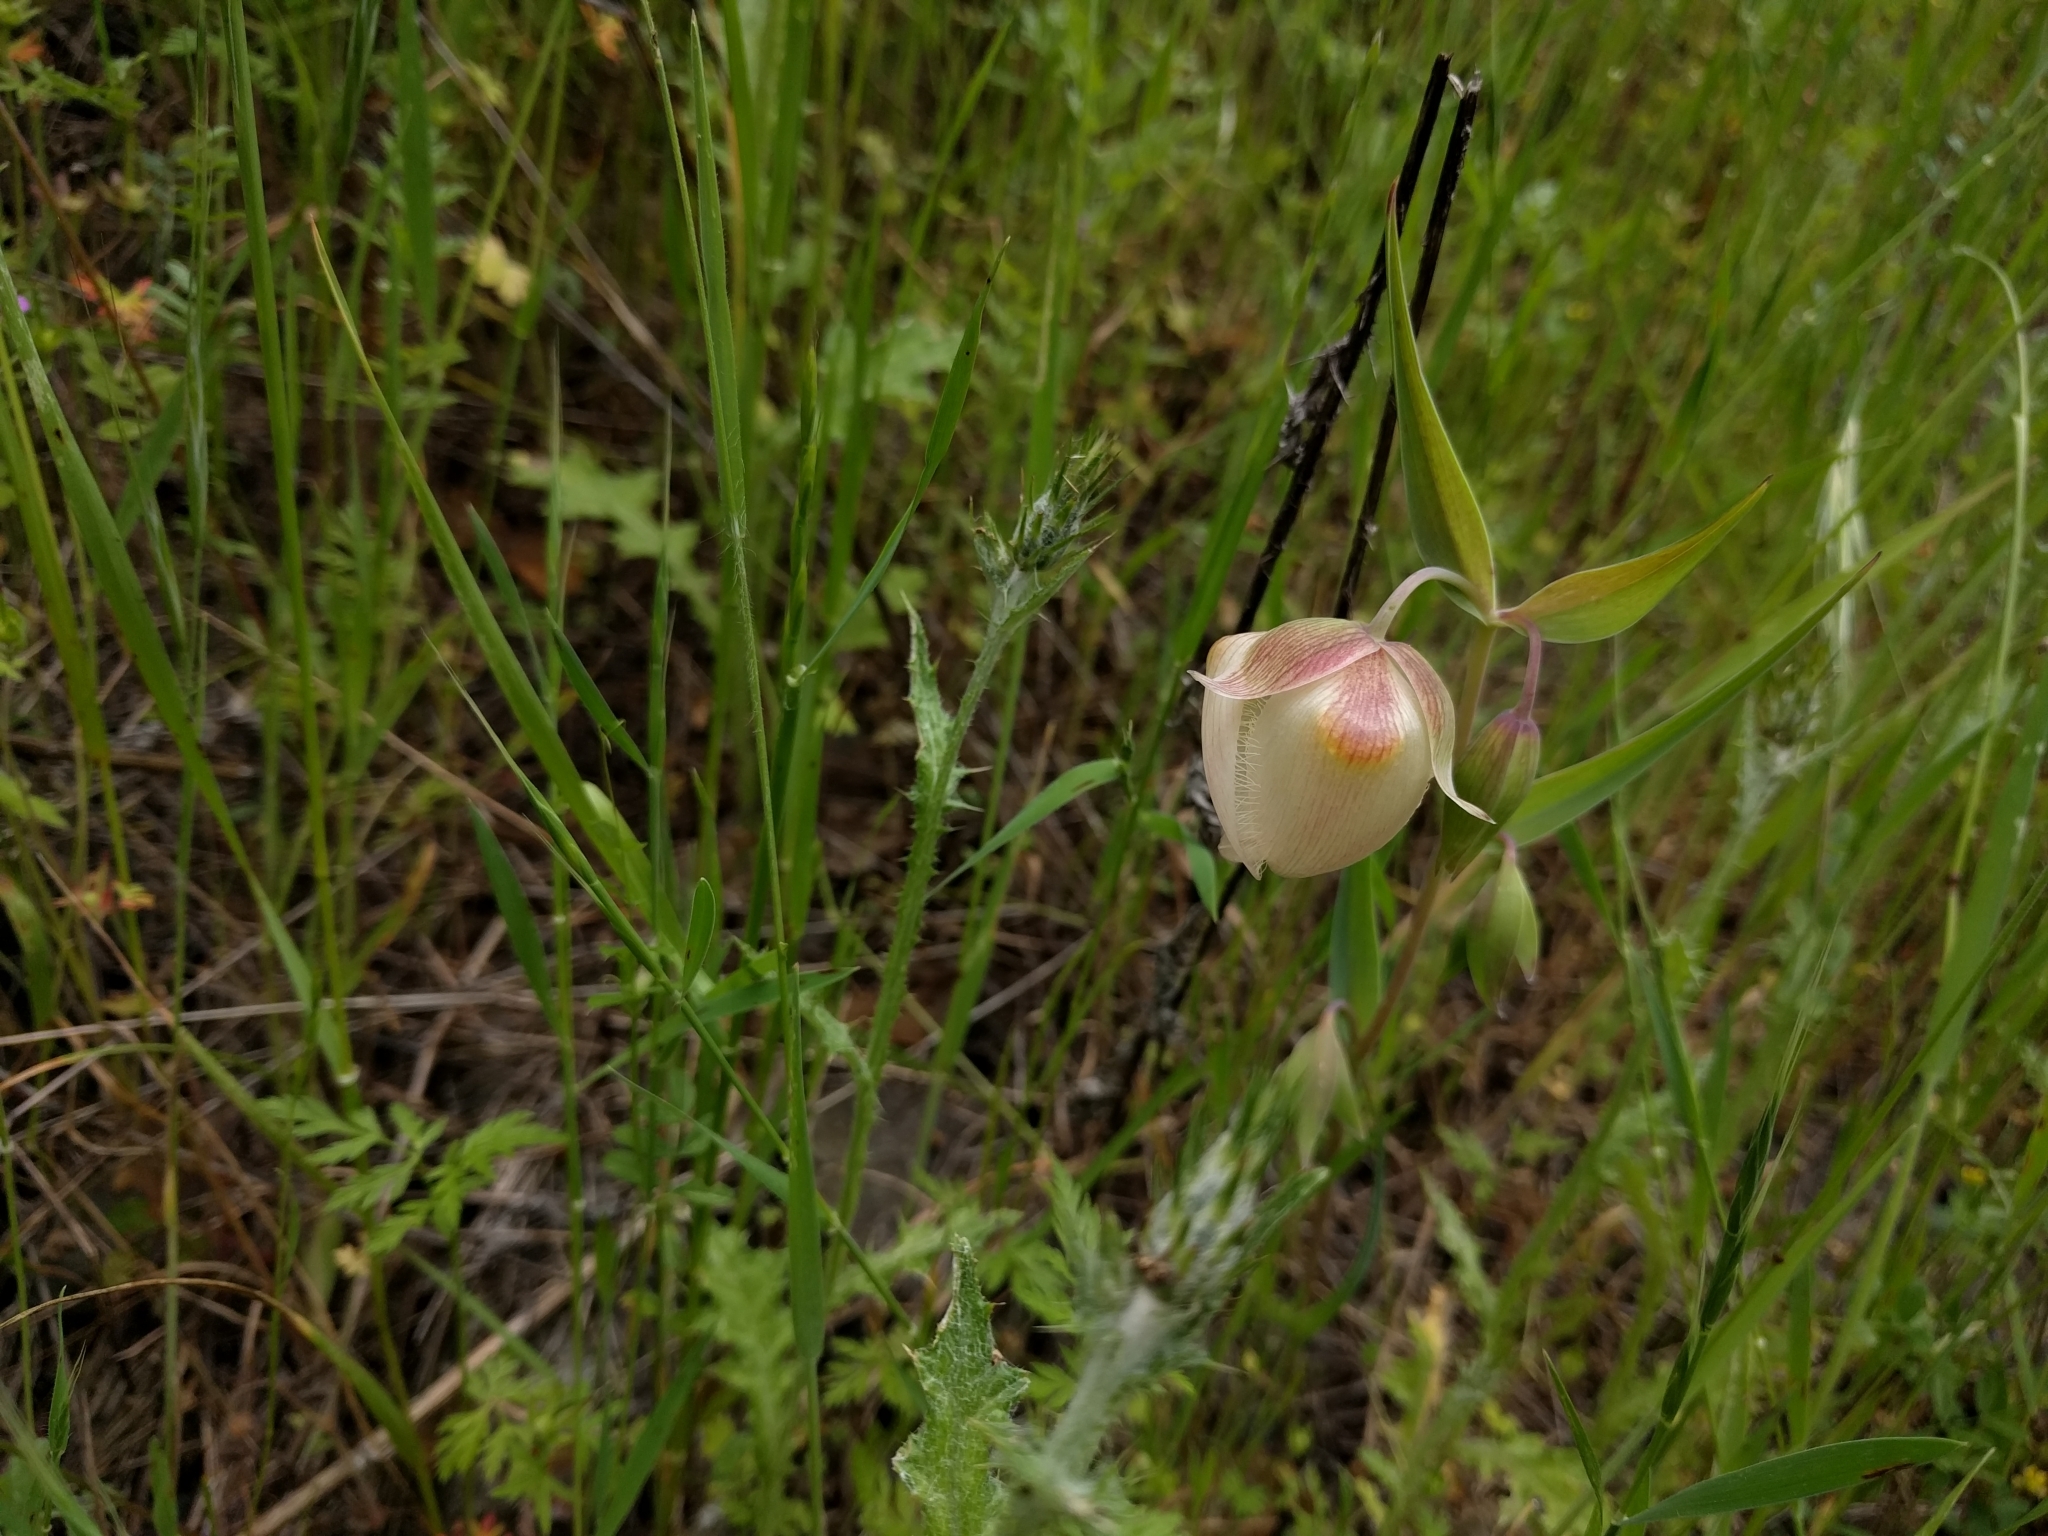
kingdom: Plantae
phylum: Tracheophyta
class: Liliopsida
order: Liliales
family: Liliaceae
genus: Calochortus
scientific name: Calochortus albus
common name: Fairy-lantern
